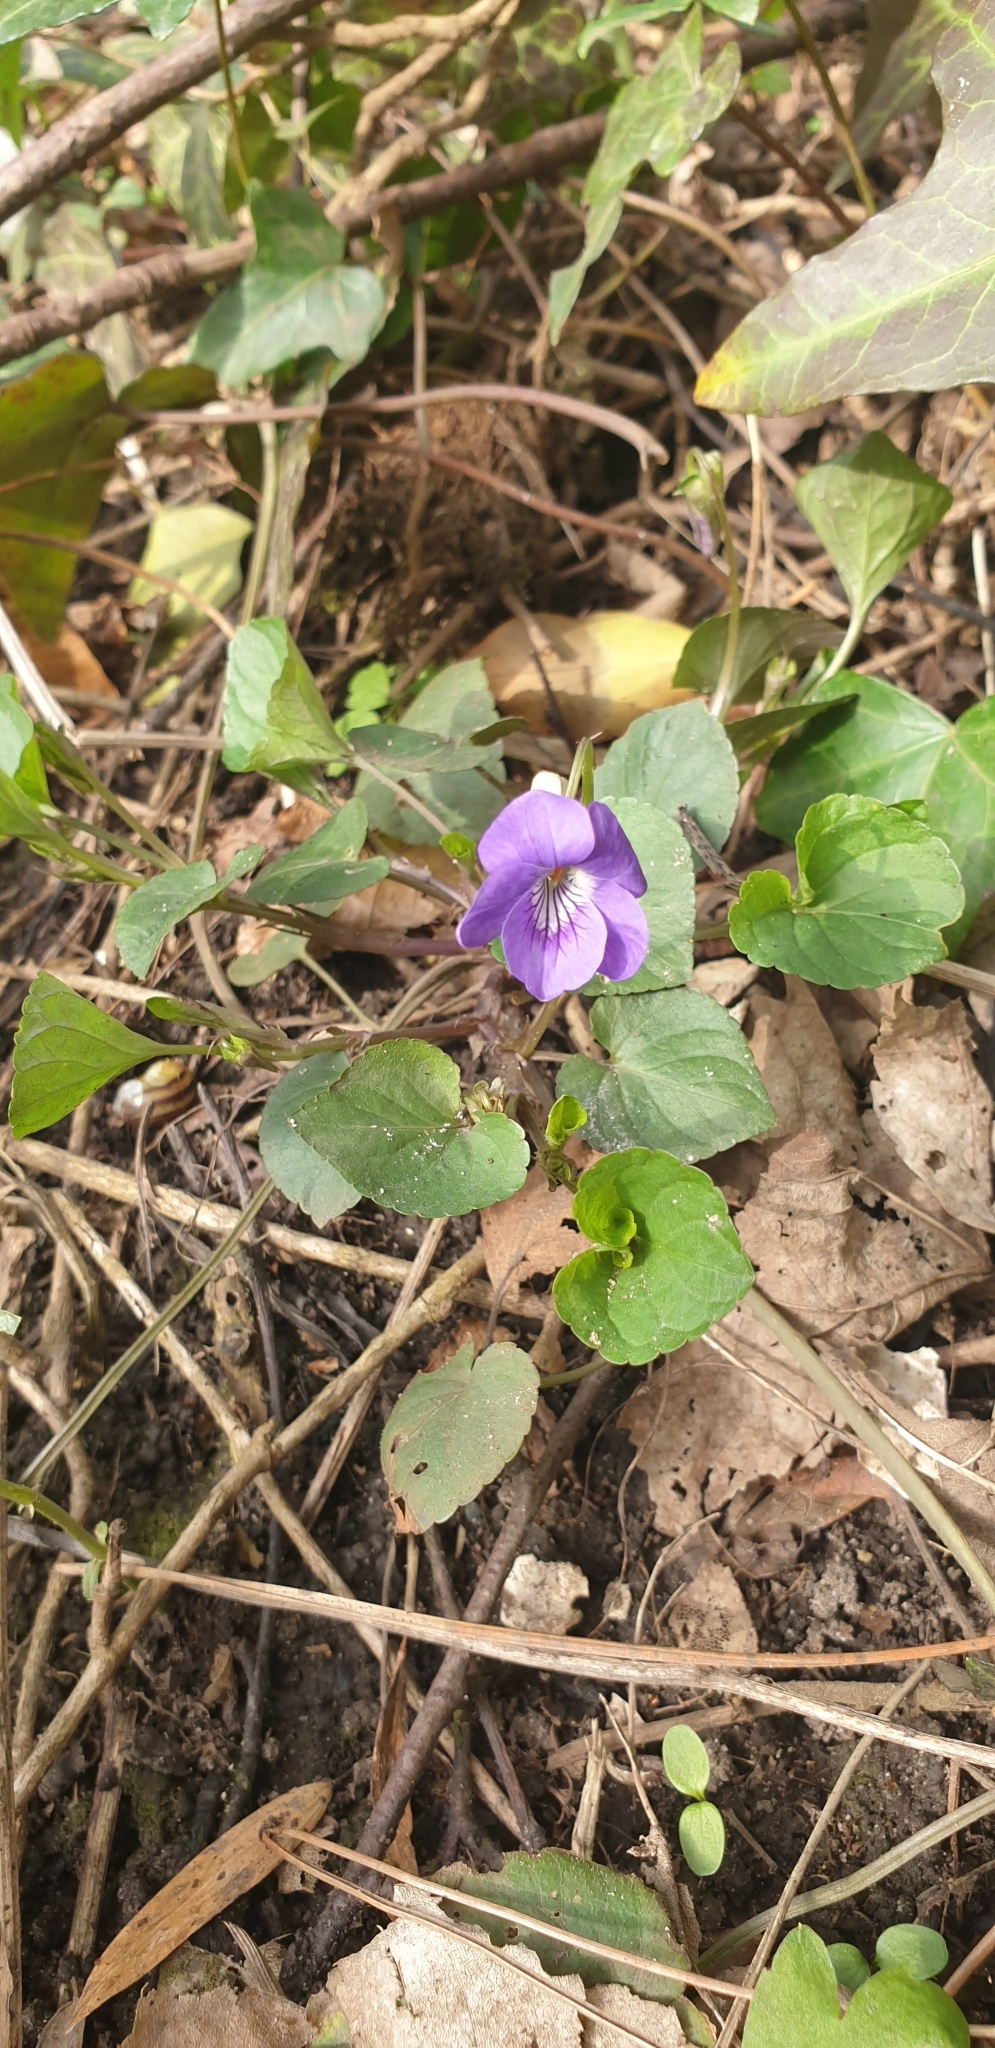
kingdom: Plantae
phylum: Tracheophyta
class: Magnoliopsida
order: Malpighiales
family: Violaceae
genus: Viola
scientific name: Viola riviniana
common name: Common dog-violet
